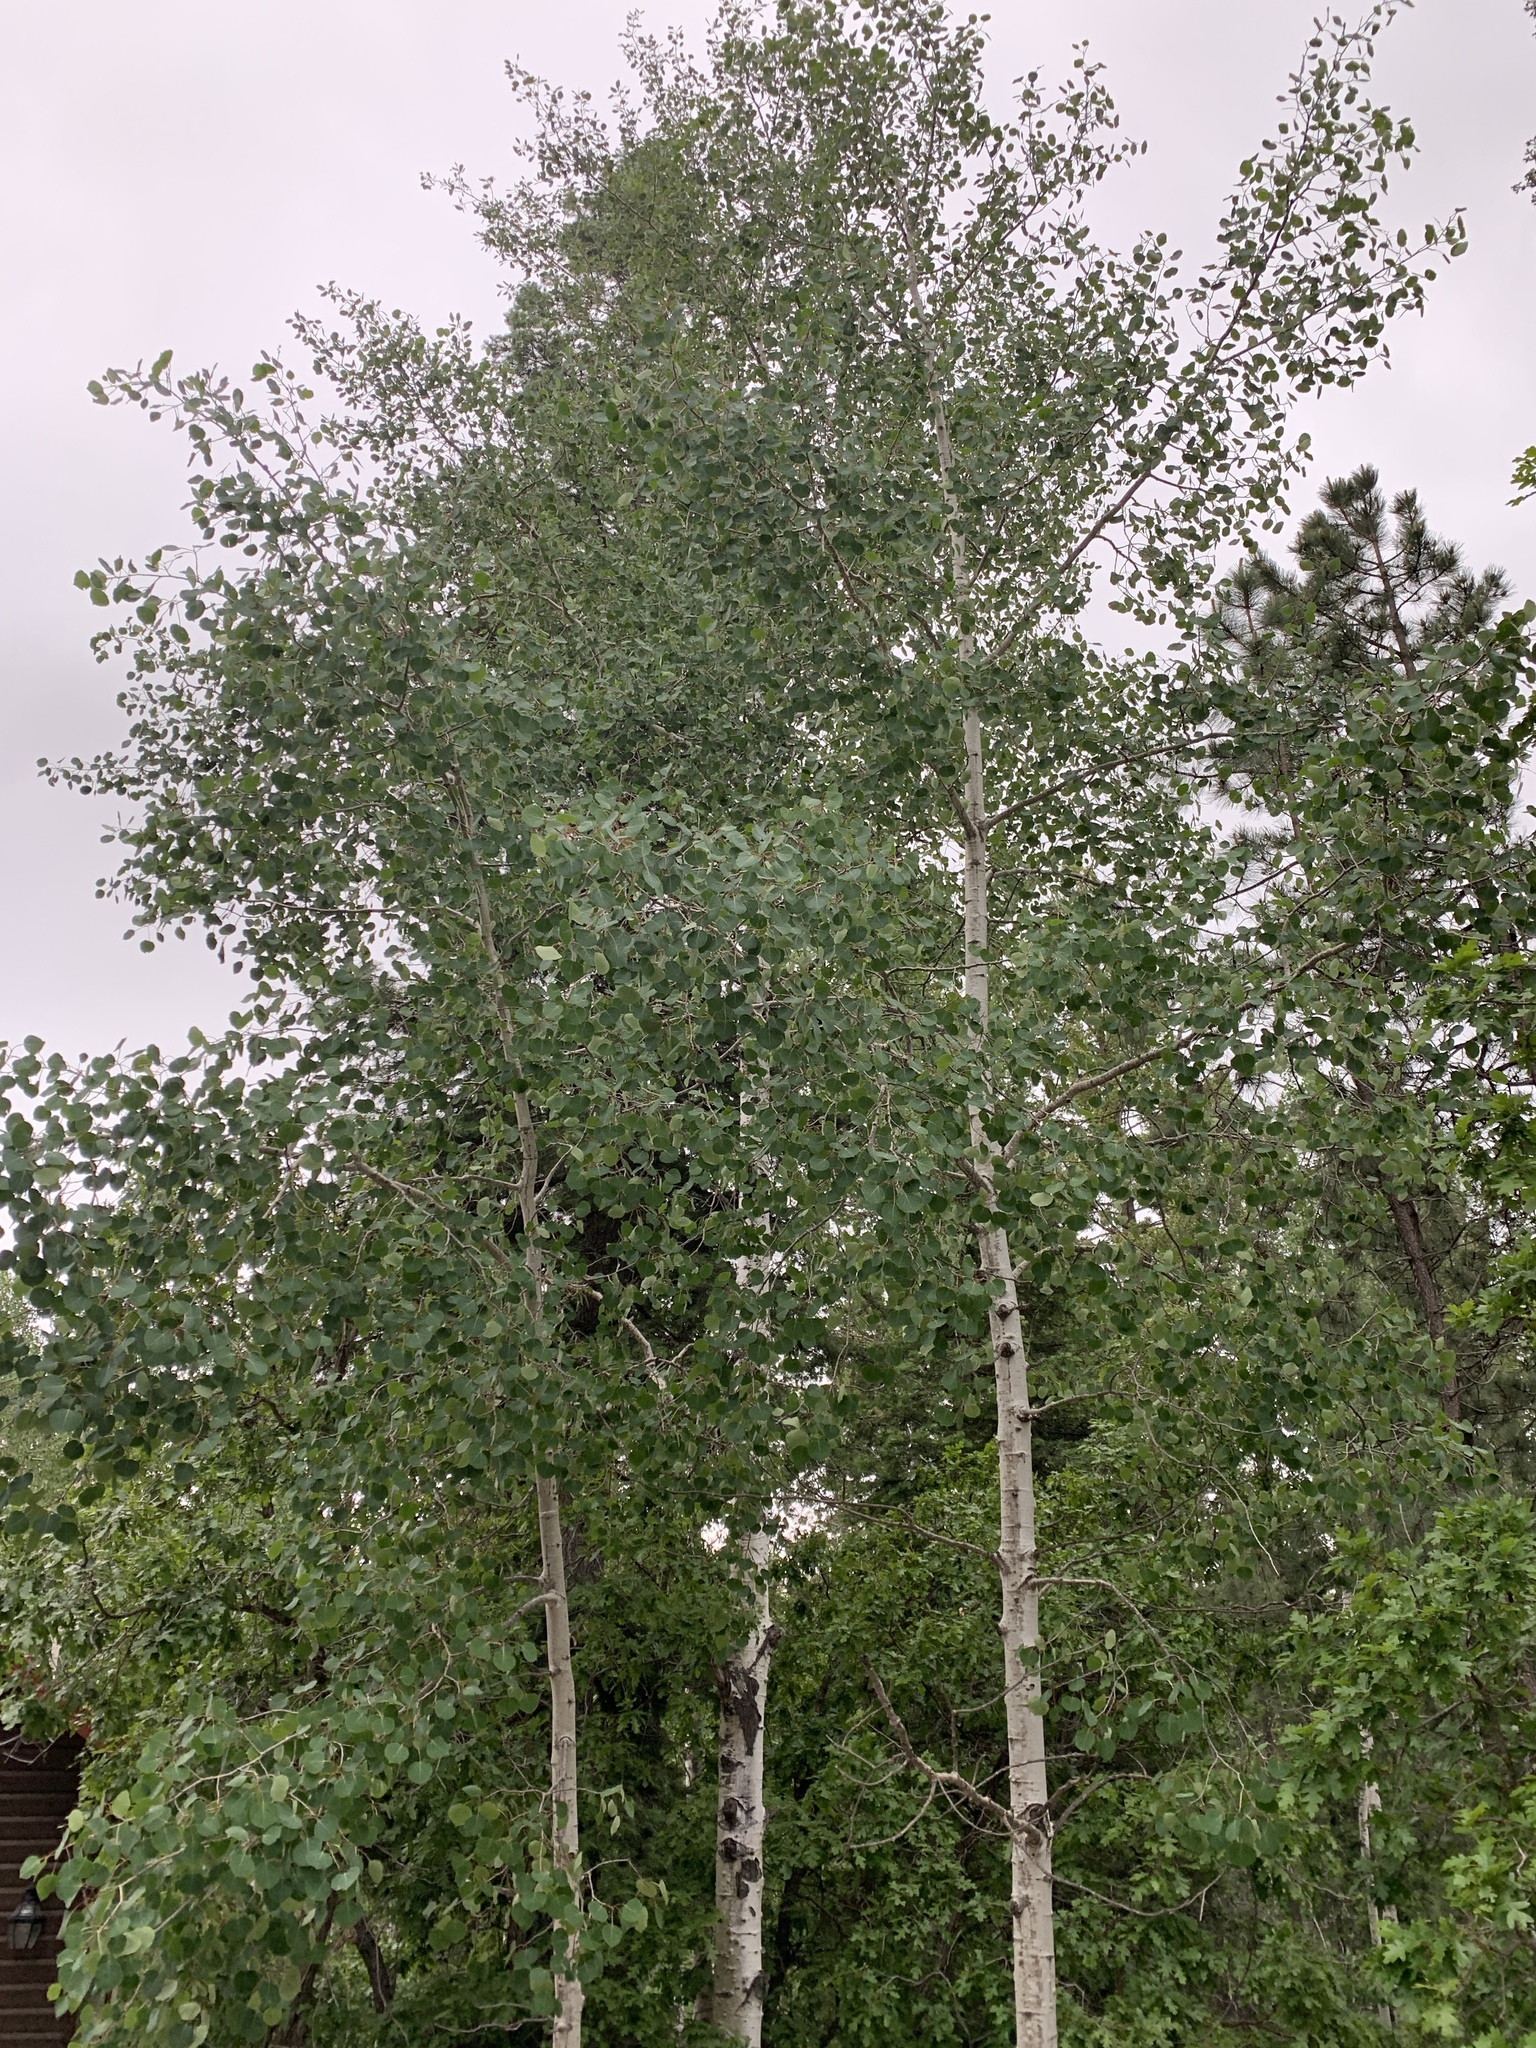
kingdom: Plantae
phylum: Tracheophyta
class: Magnoliopsida
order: Malpighiales
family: Salicaceae
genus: Populus
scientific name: Populus tremuloides
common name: Quaking aspen
